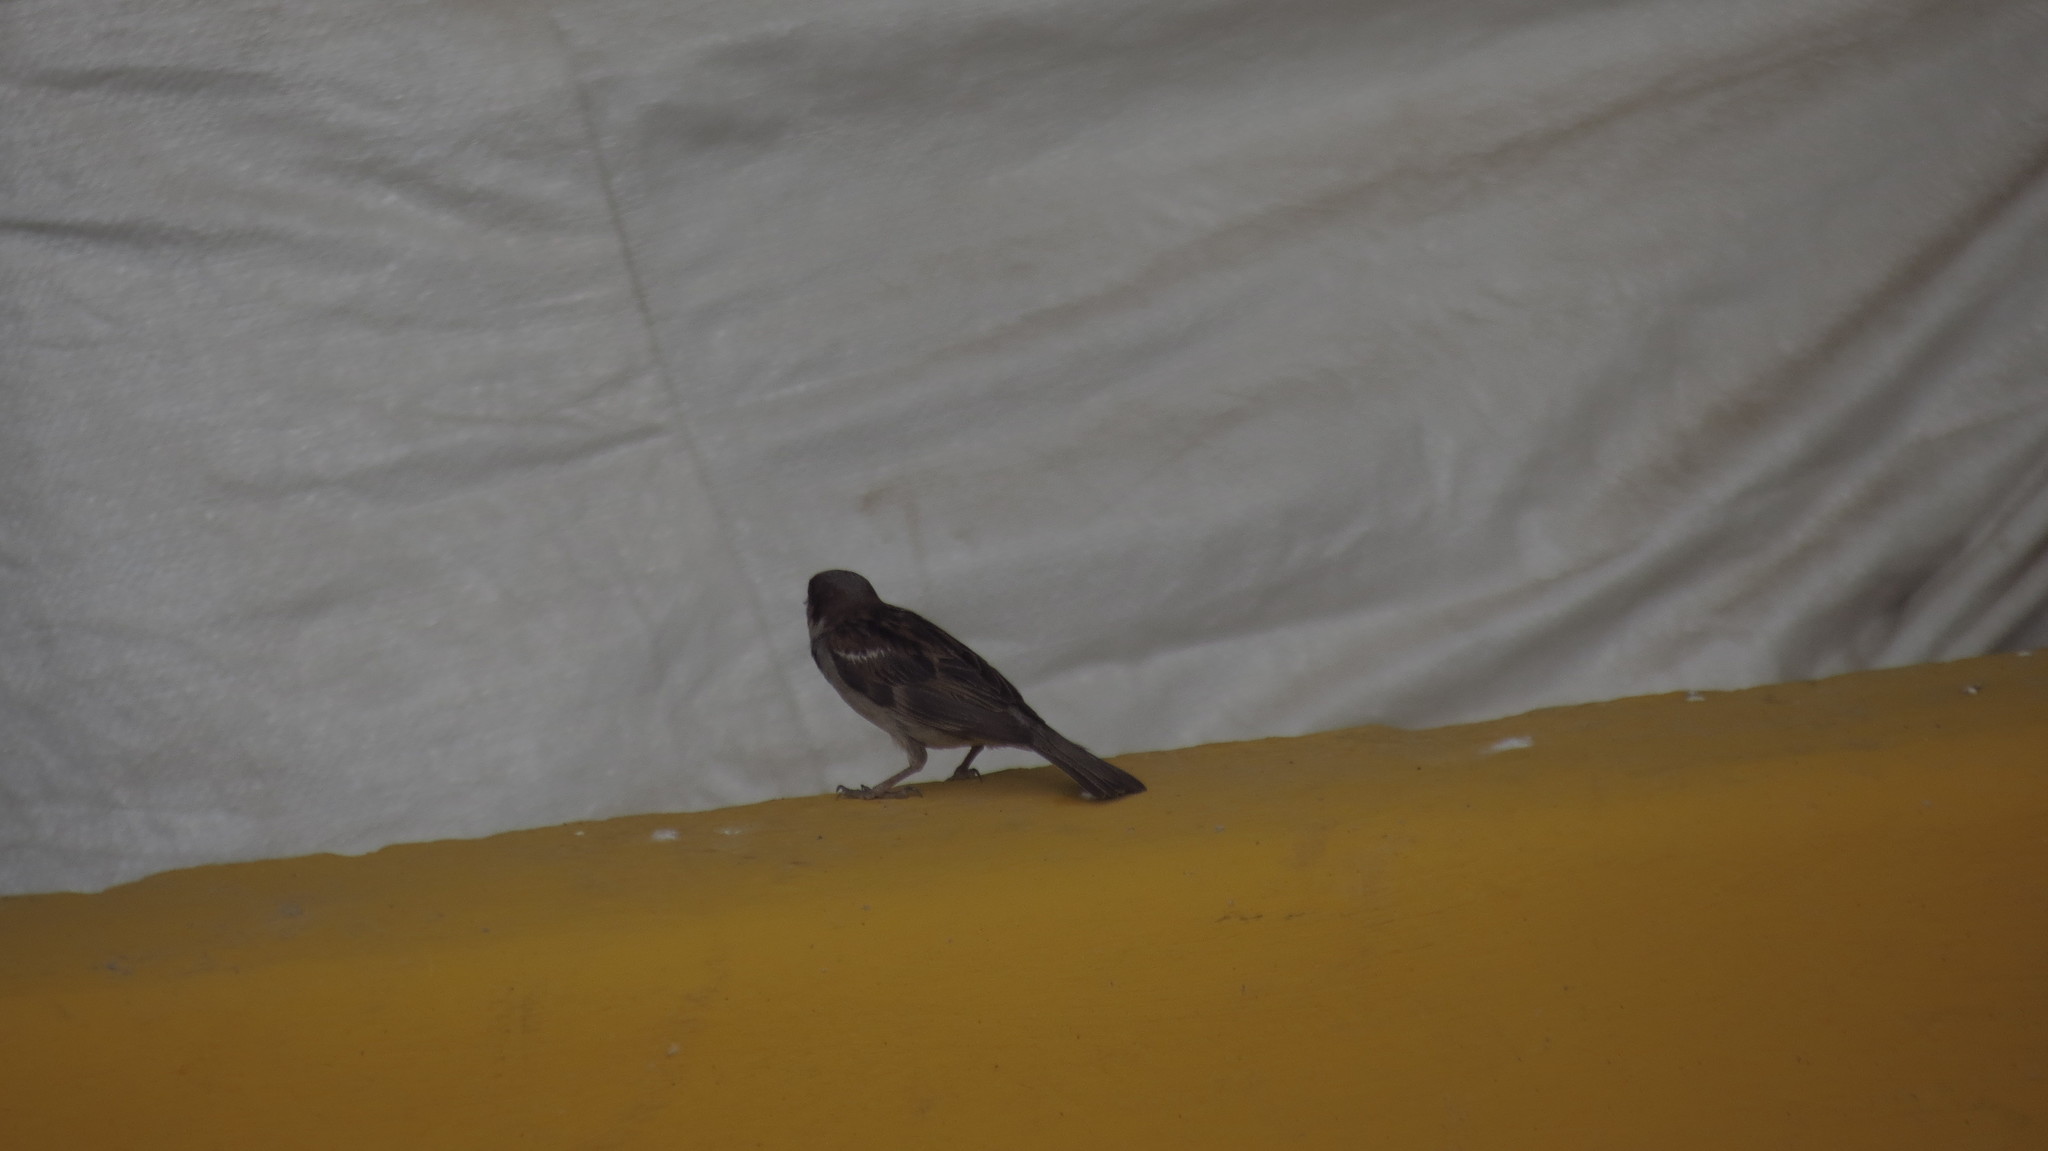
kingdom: Animalia
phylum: Chordata
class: Aves
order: Passeriformes
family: Passeridae
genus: Passer
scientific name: Passer domesticus
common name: House sparrow
